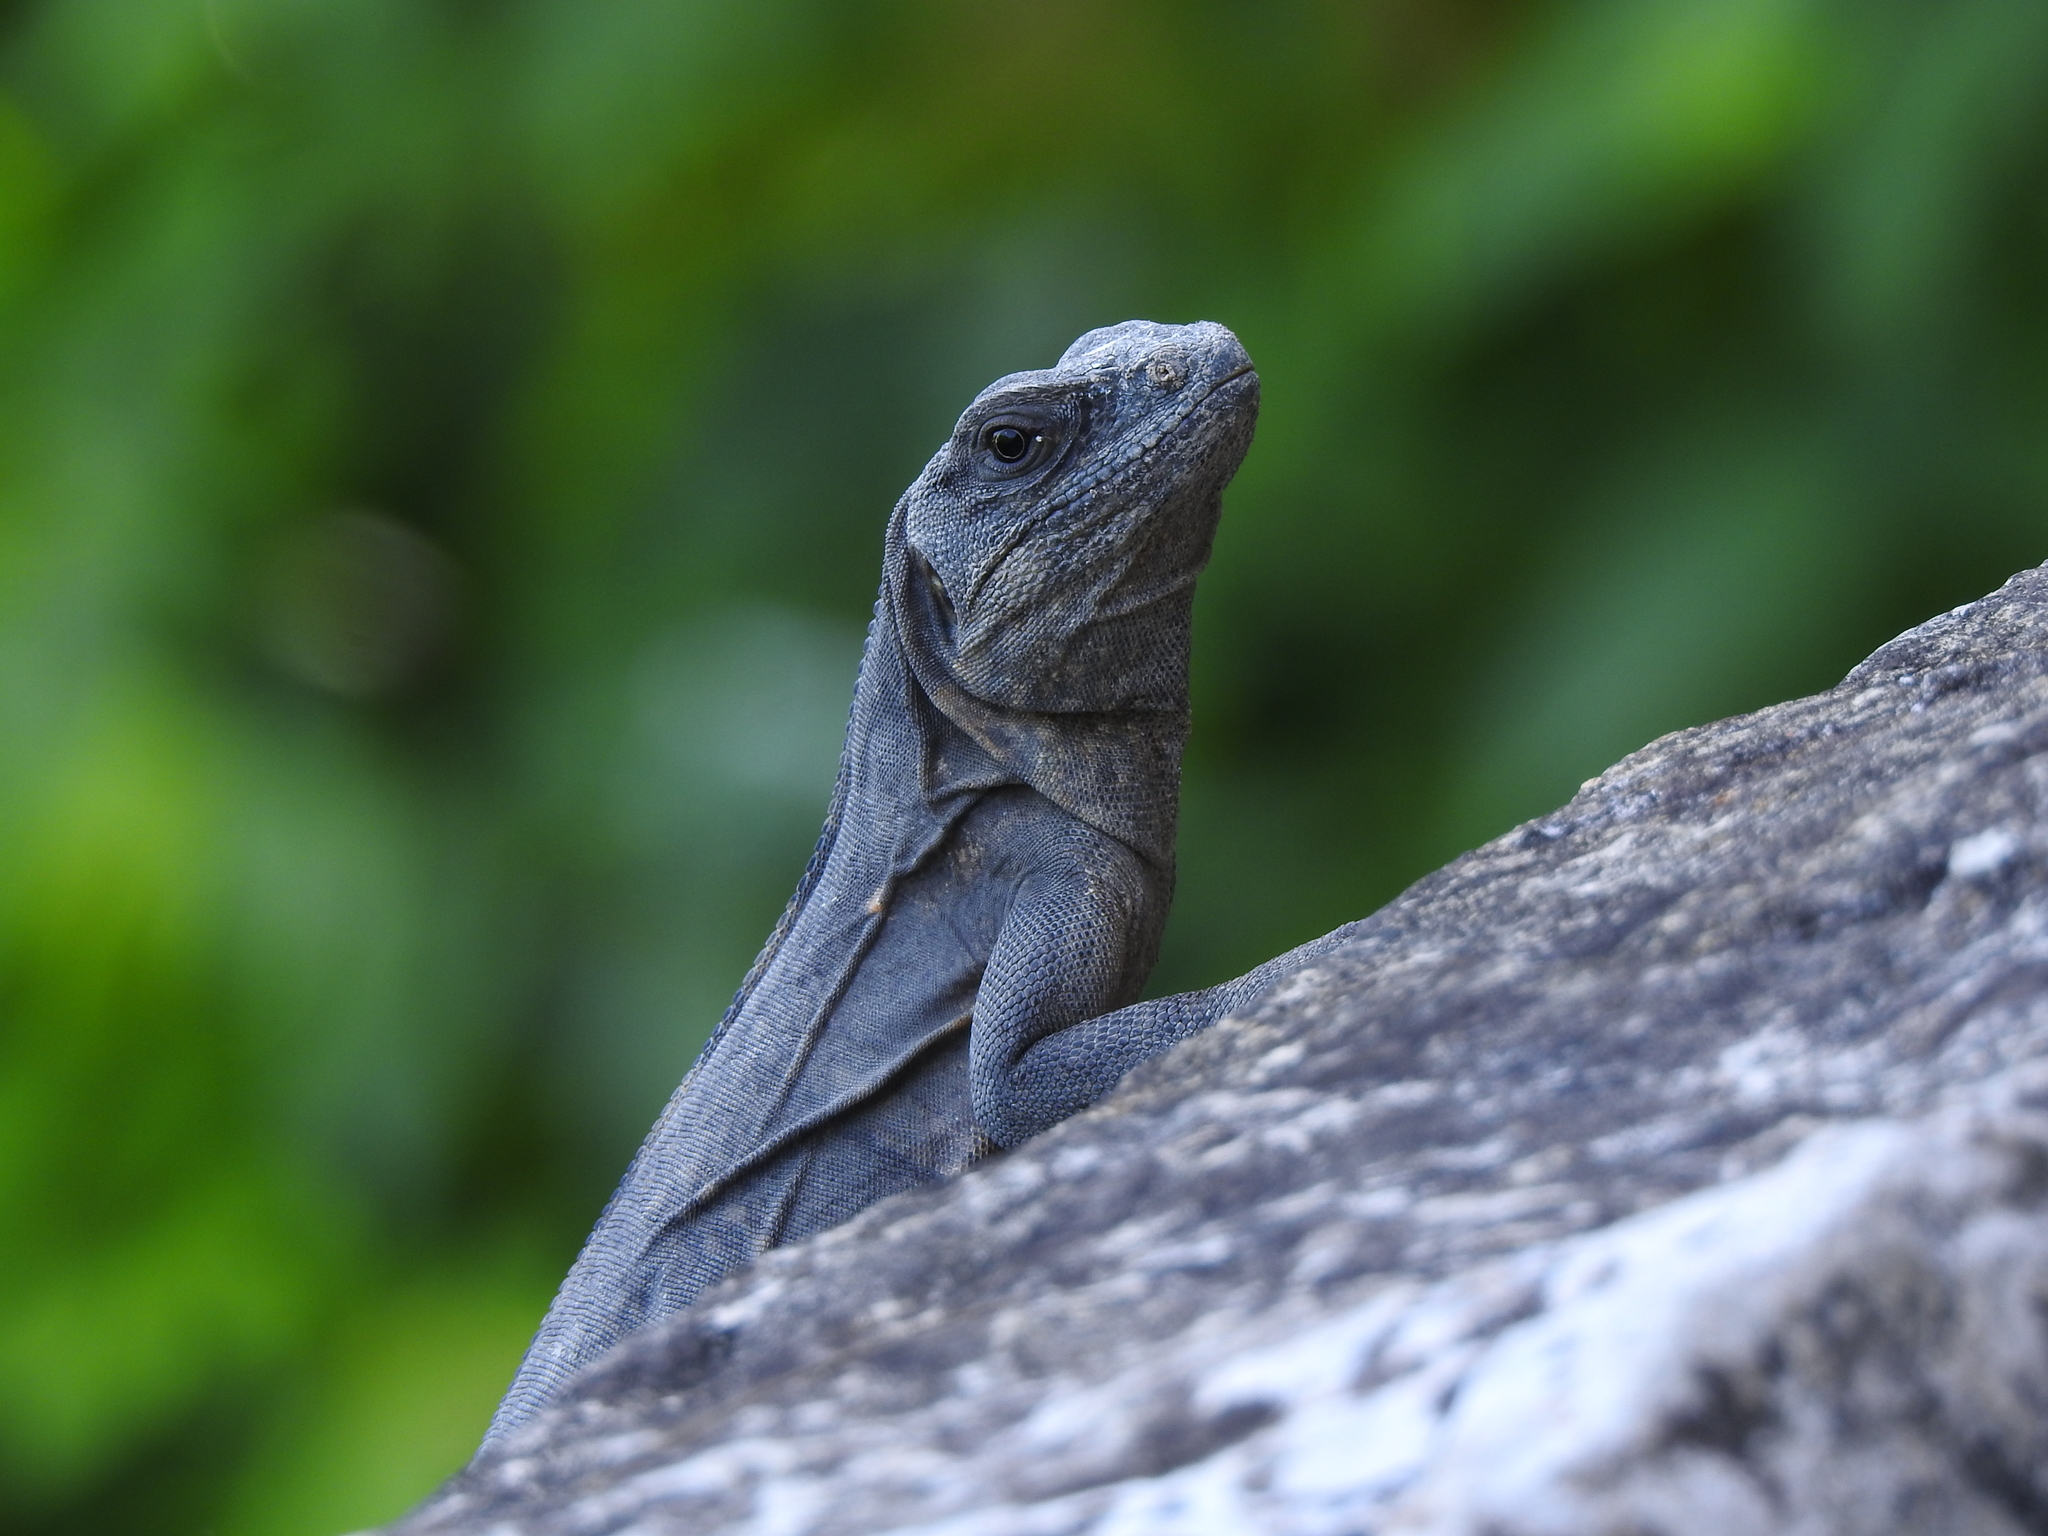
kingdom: Animalia
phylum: Chordata
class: Squamata
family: Iguanidae
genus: Ctenosaura
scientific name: Ctenosaura similis
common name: Black spiny-tailed iguana
